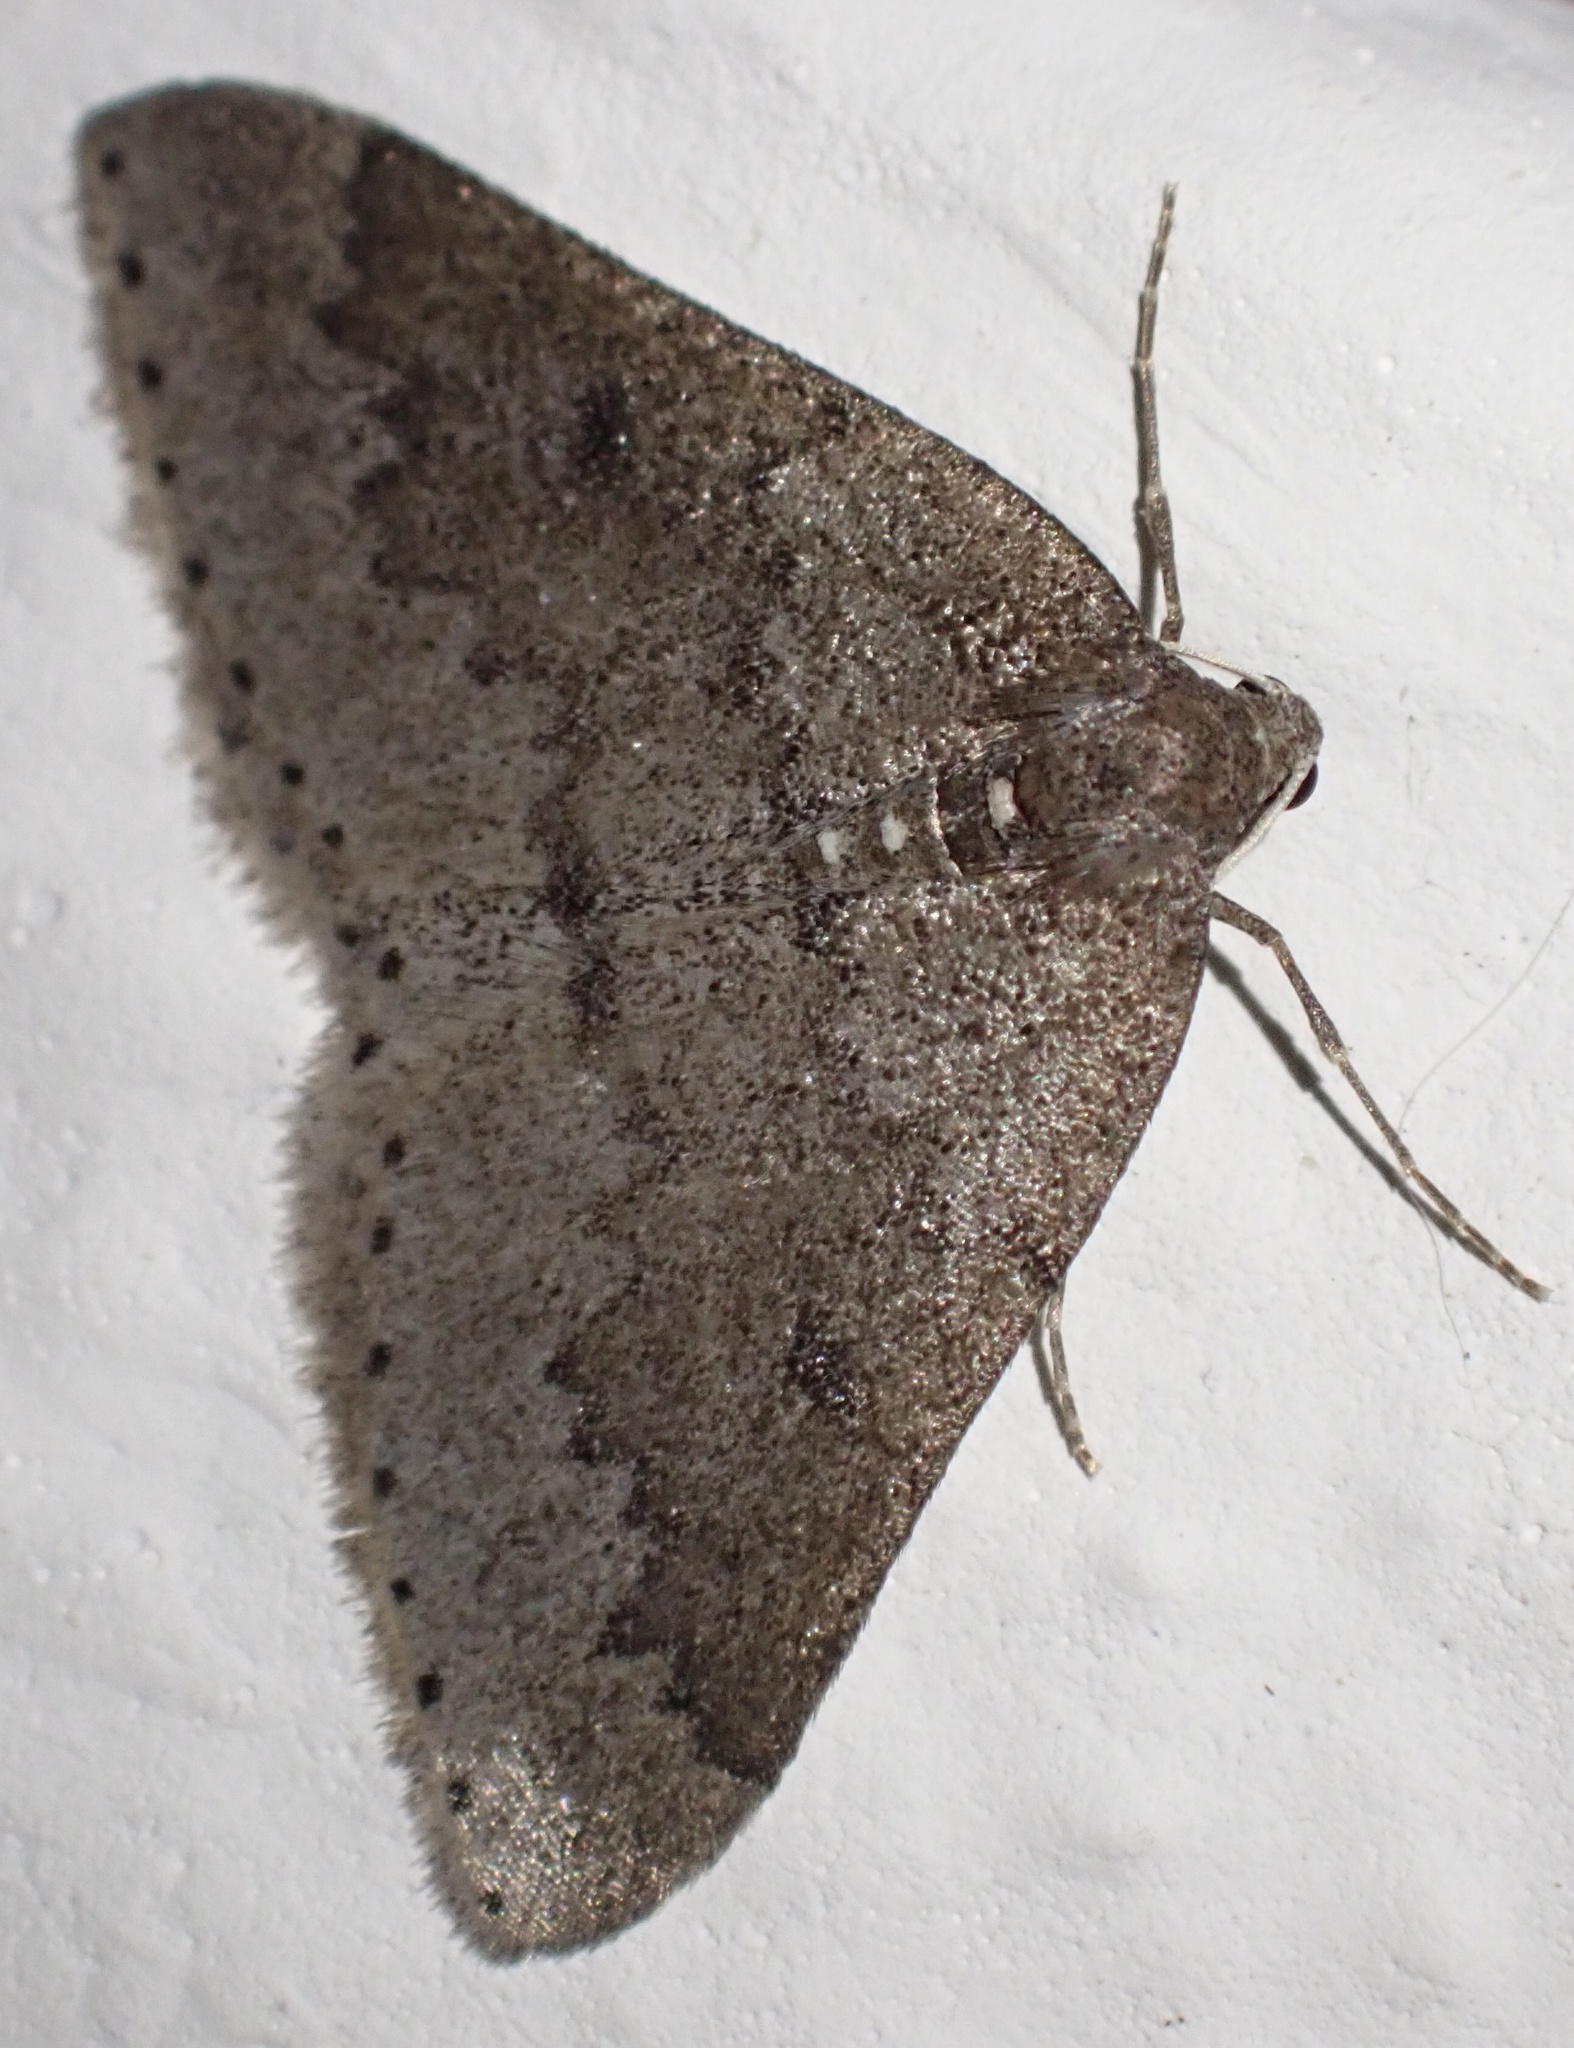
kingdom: Animalia
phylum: Arthropoda
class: Insecta
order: Lepidoptera
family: Geometridae
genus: Aleucis
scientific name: Aleucis distinctata
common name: Sloe carpet
